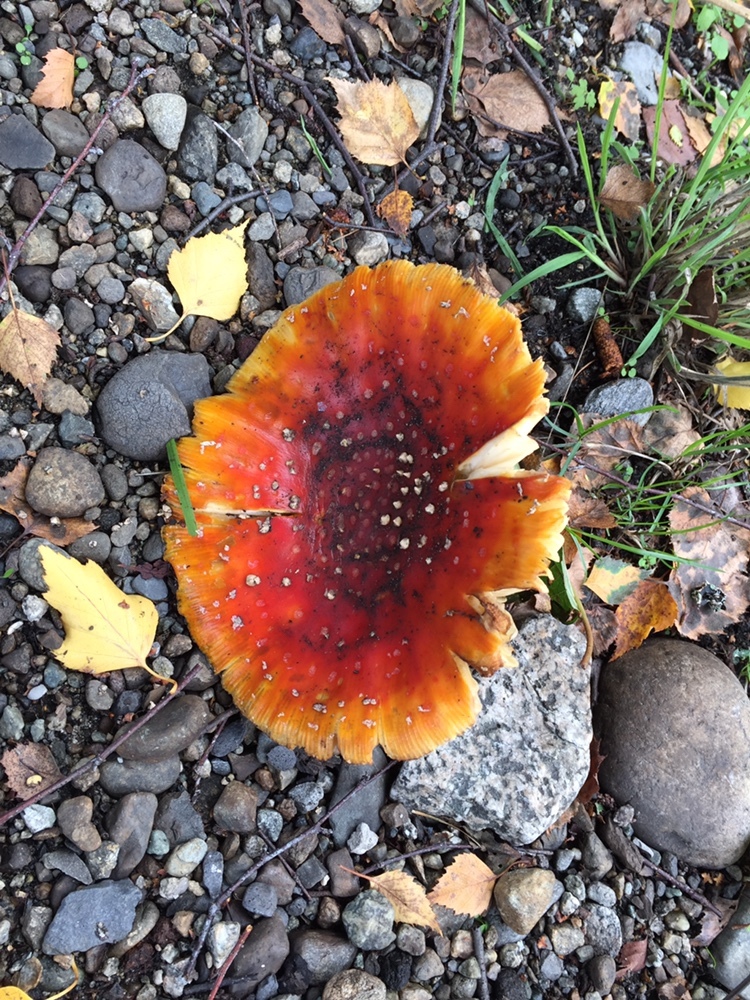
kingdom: Fungi
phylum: Basidiomycota
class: Agaricomycetes
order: Agaricales
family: Amanitaceae
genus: Amanita
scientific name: Amanita muscaria
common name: Fly agaric
